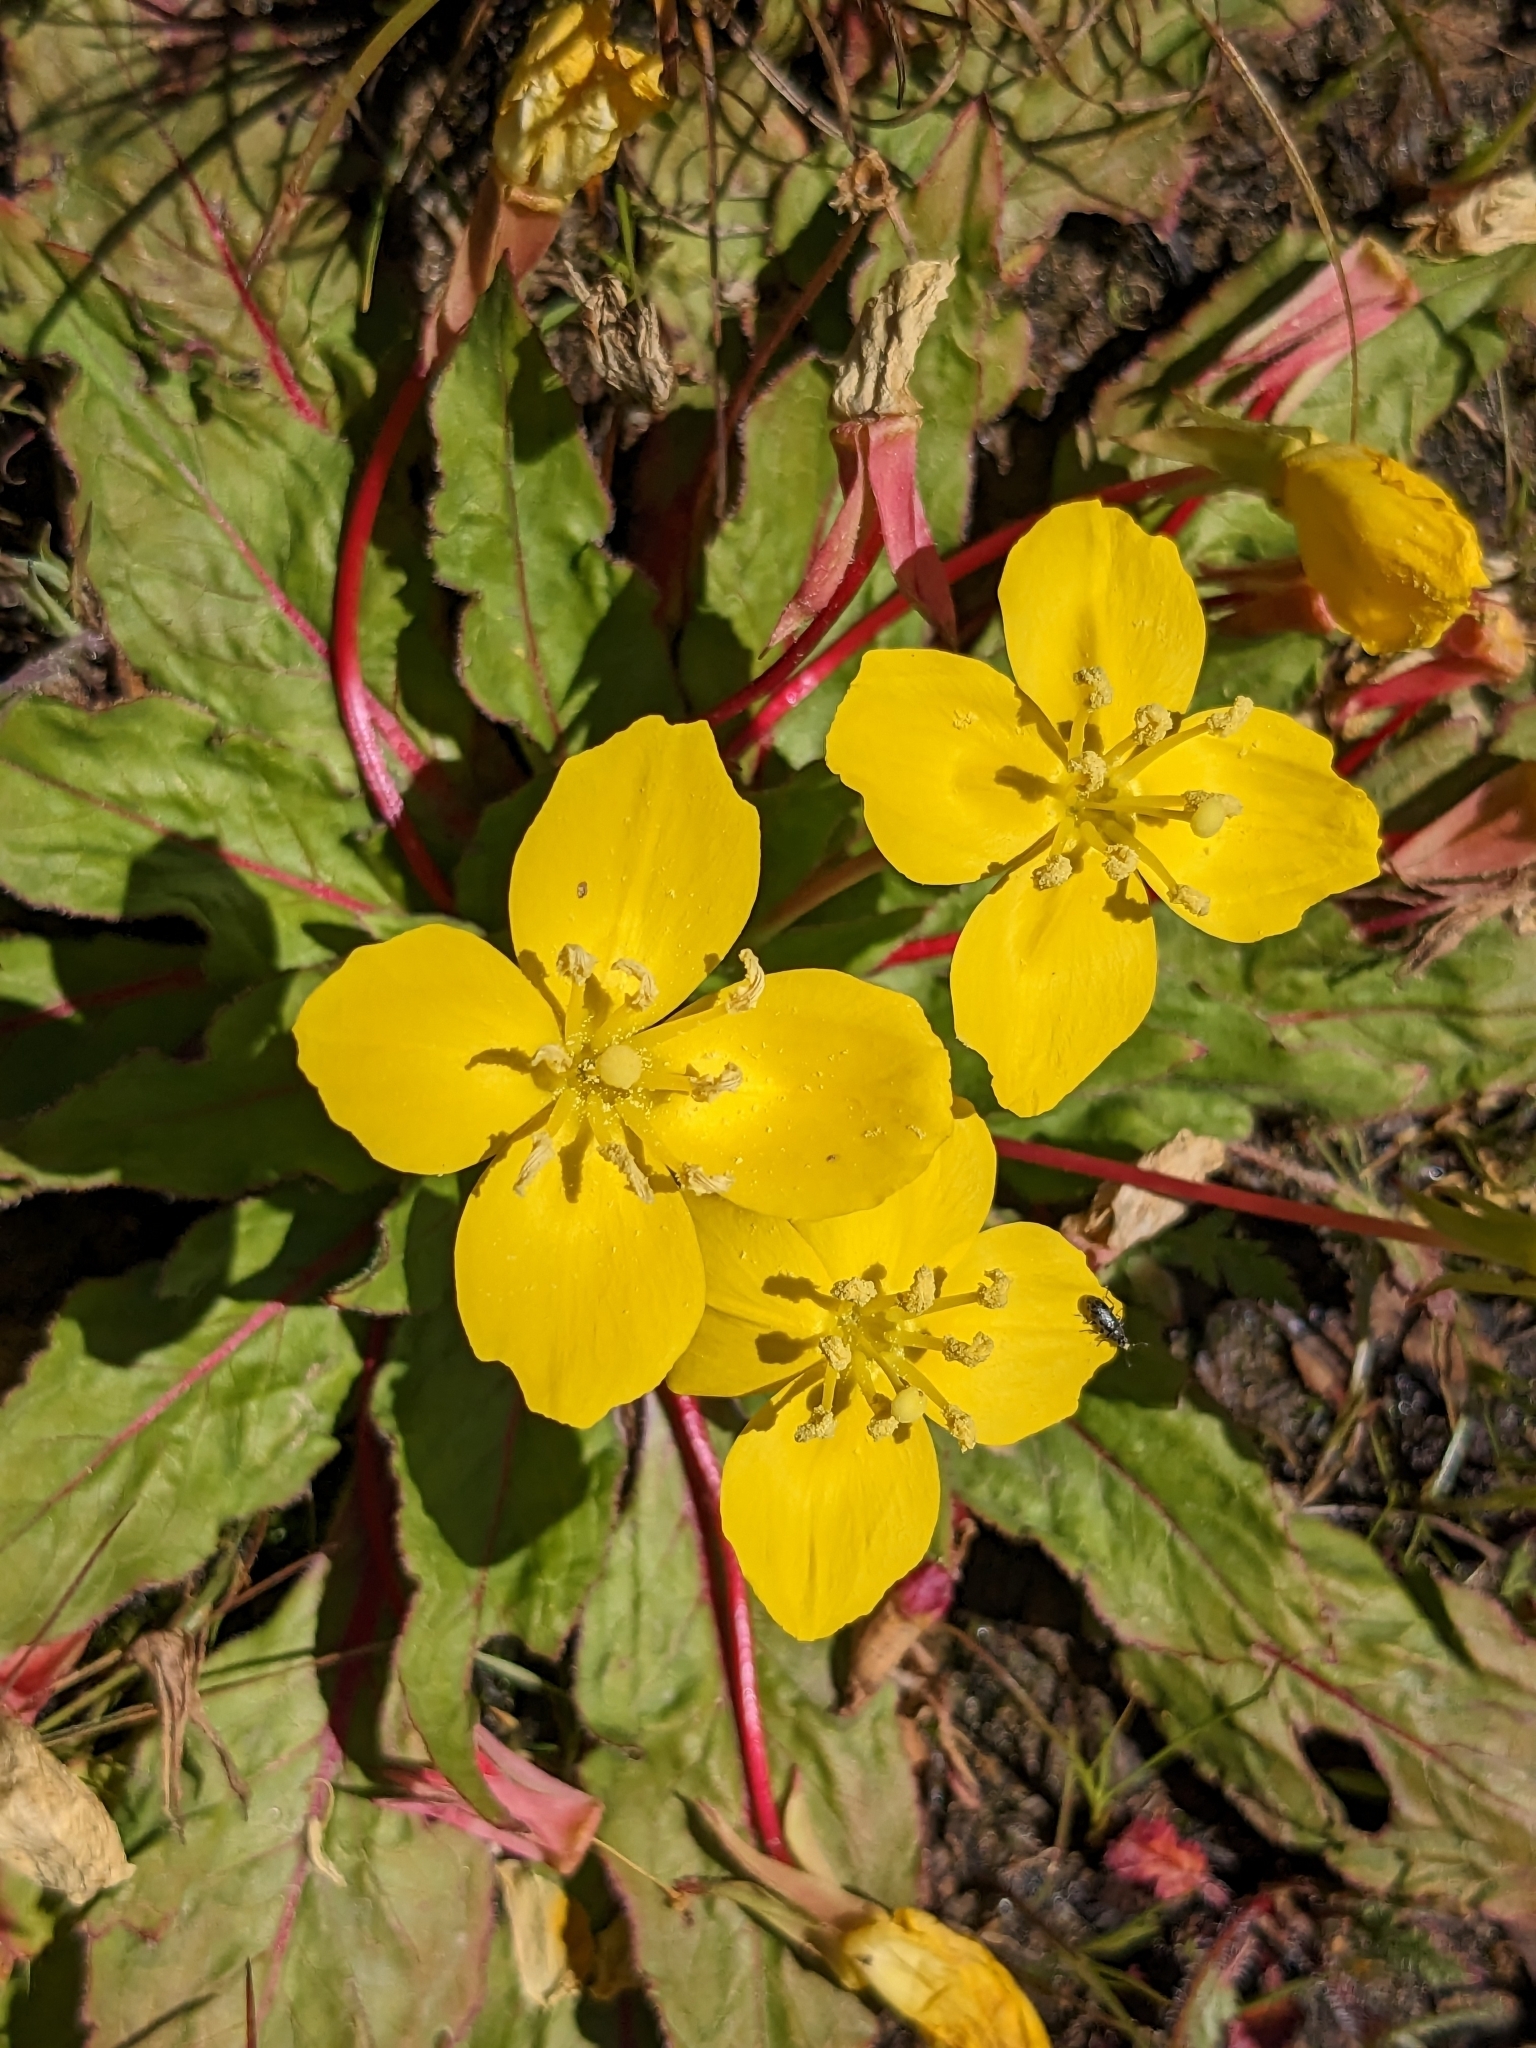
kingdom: Plantae
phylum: Tracheophyta
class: Magnoliopsida
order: Myrtales
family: Onagraceae
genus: Taraxia
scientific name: Taraxia ovata
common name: Goldeneggs
